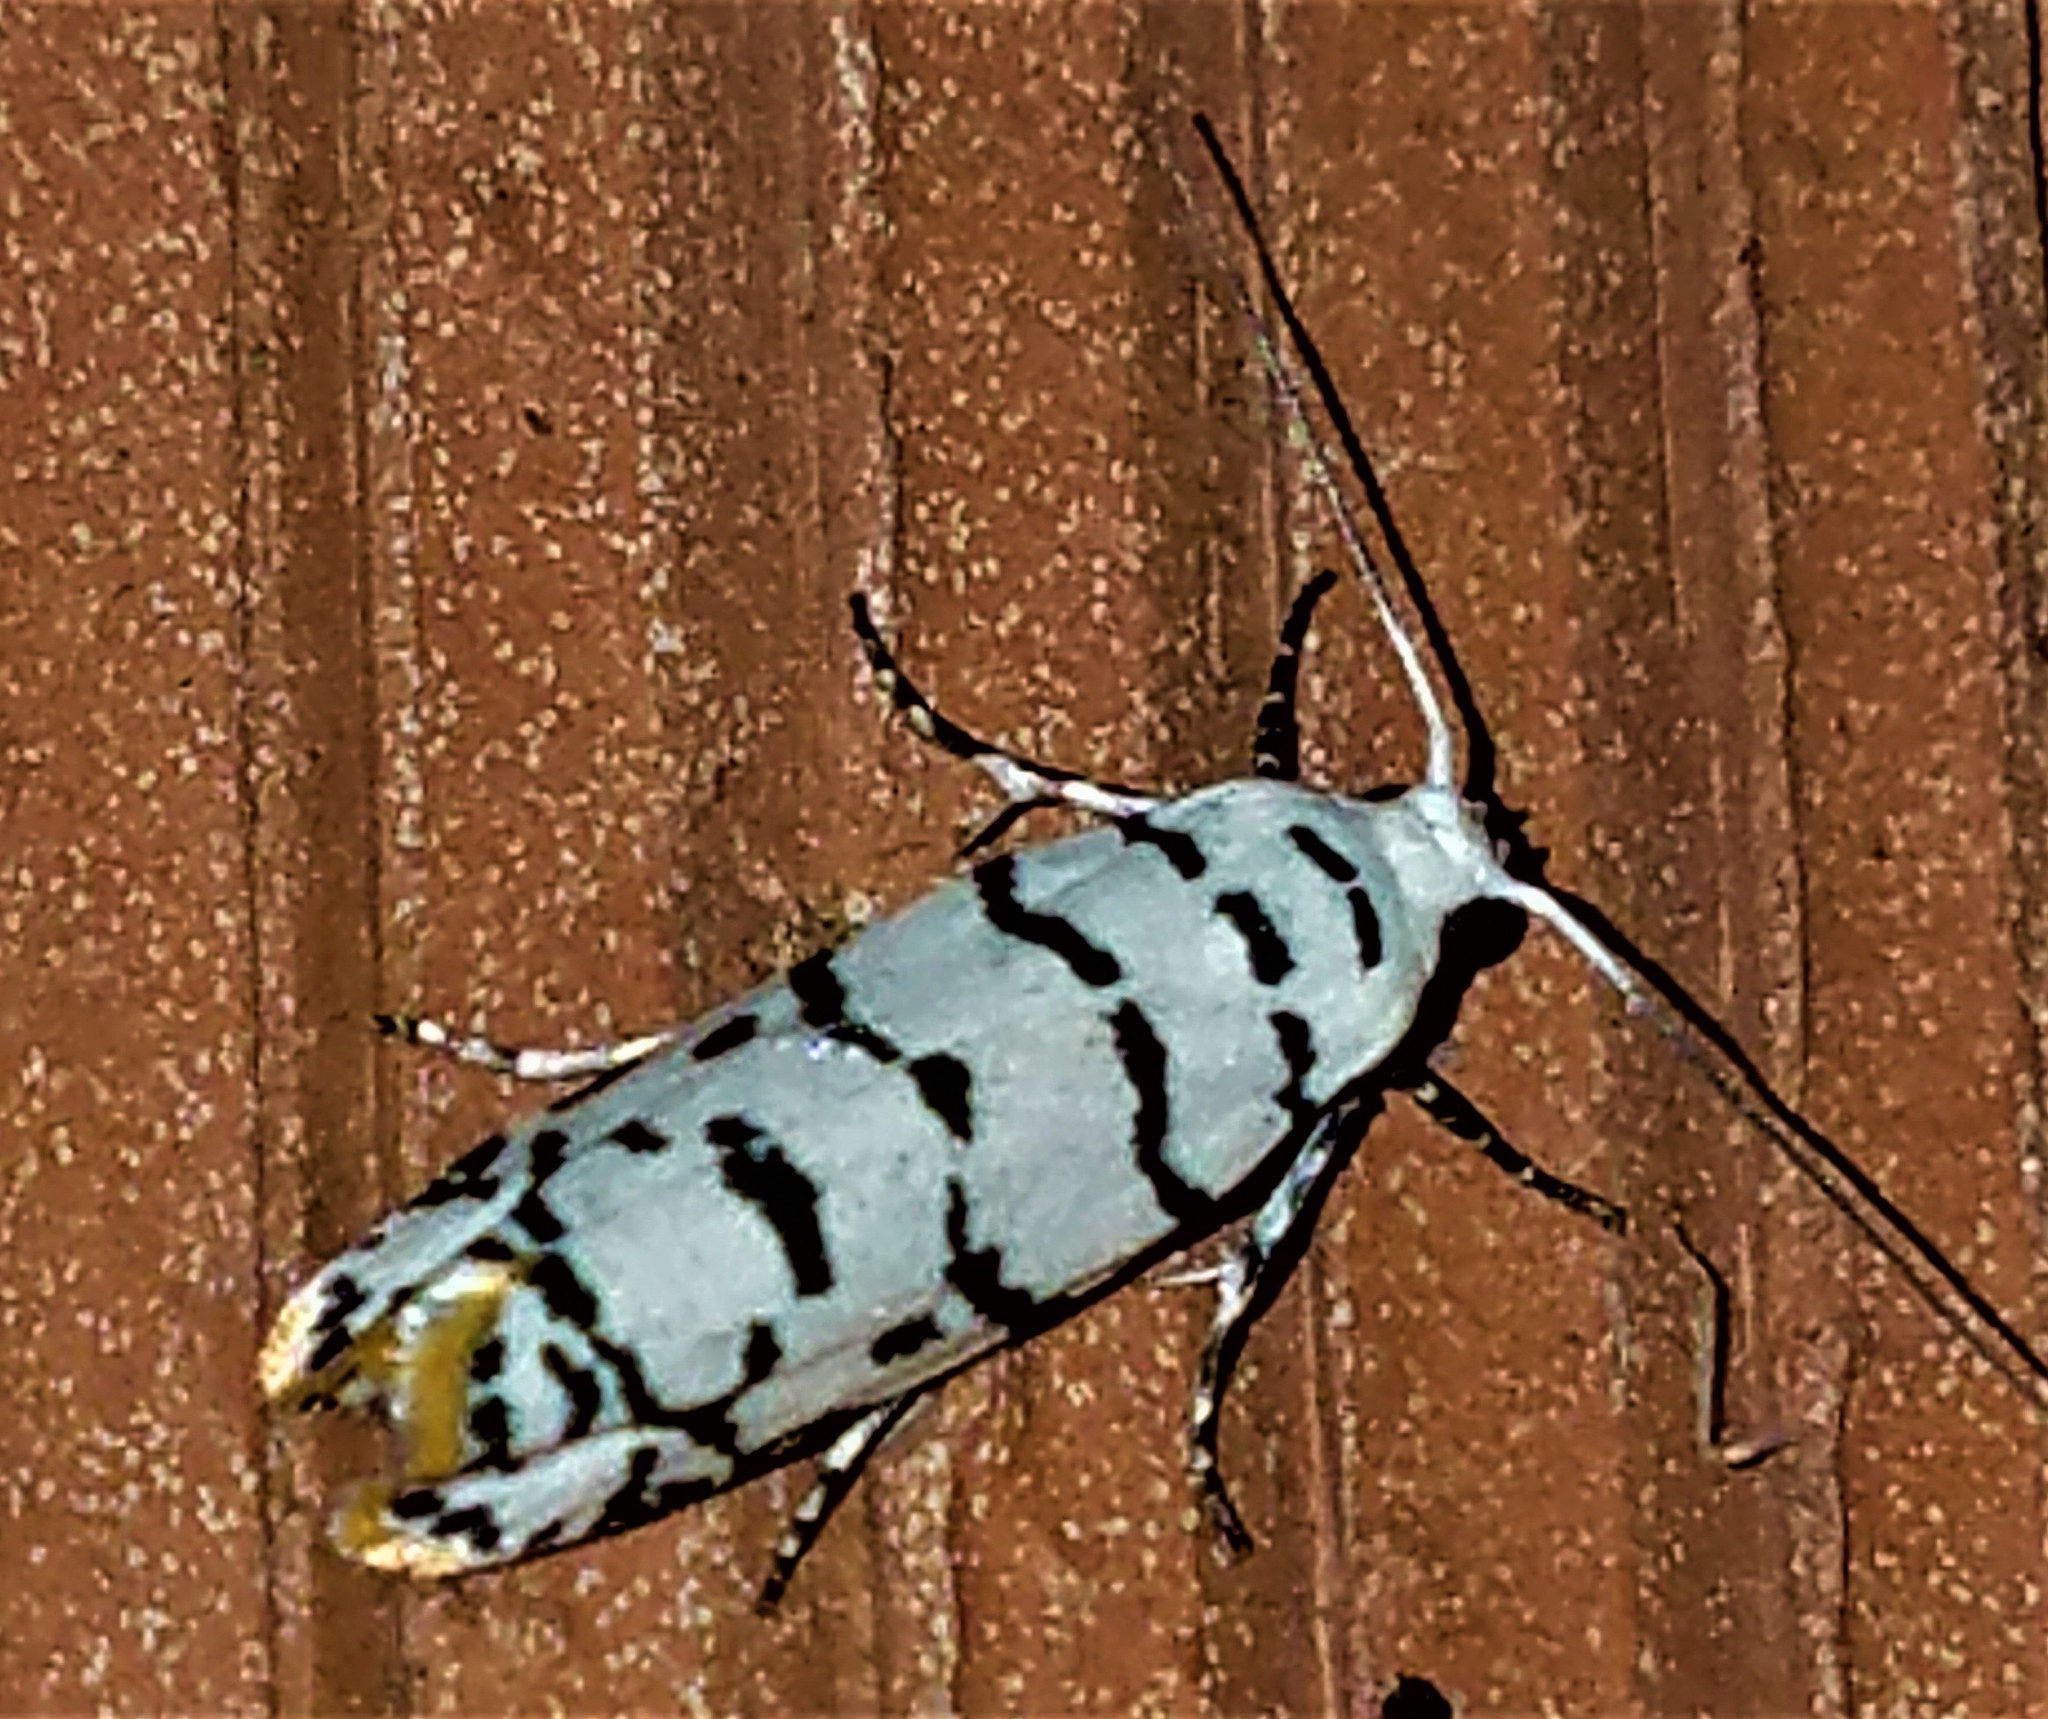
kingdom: Animalia
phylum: Arthropoda
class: Insecta
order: Lepidoptera
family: Ethmiidae
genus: Ethmia
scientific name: Ethmia delliella
